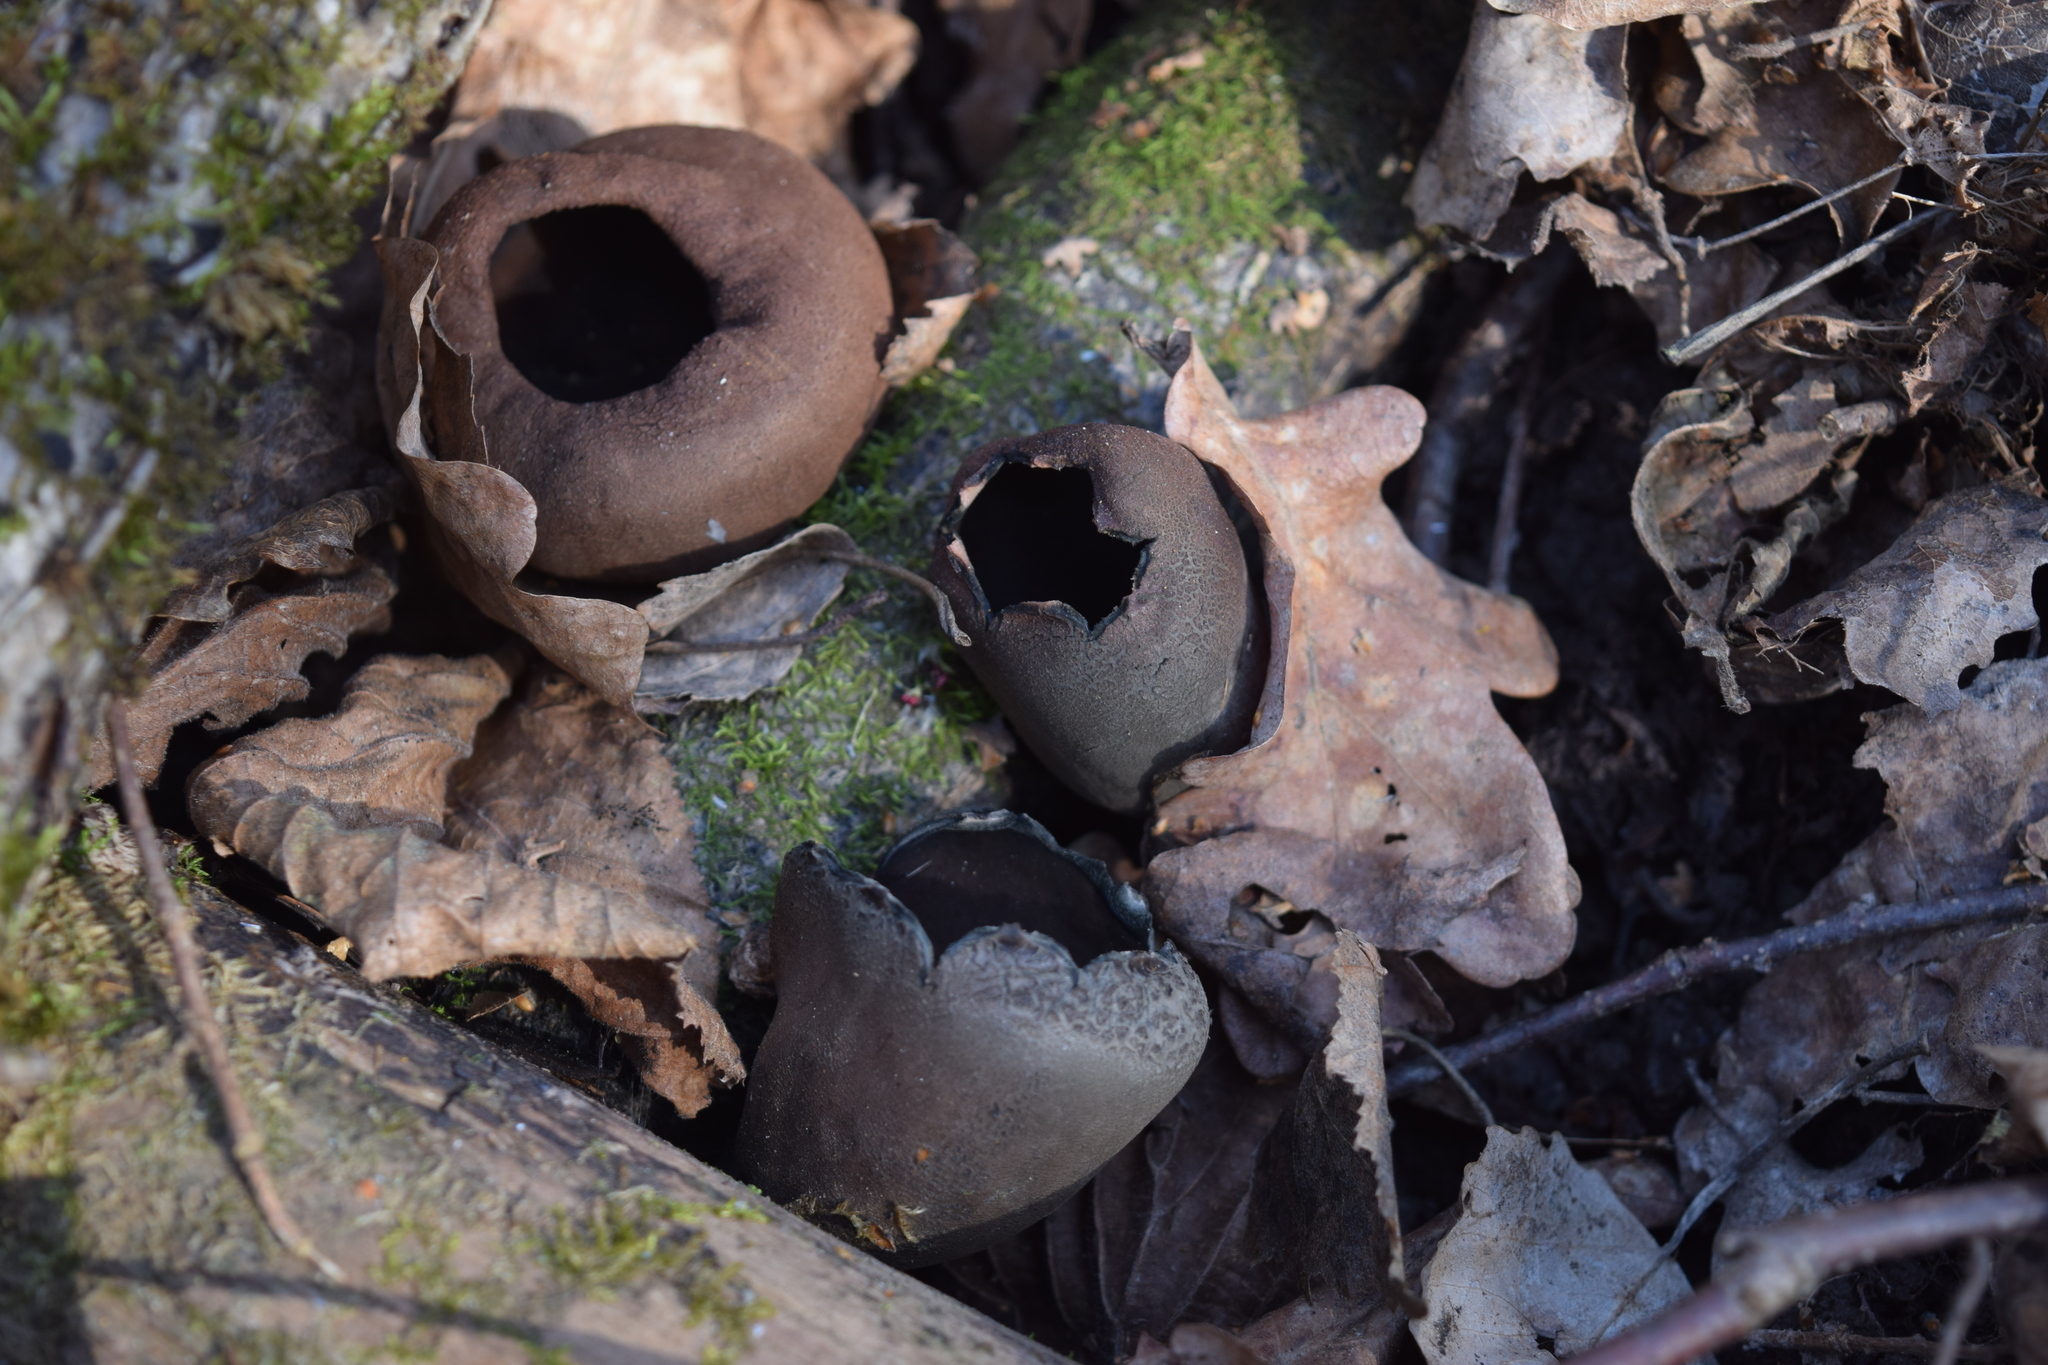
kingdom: Fungi
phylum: Ascomycota
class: Pezizomycetes
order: Pezizales
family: Sarcosomataceae
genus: Urnula
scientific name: Urnula craterium
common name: Devil's urn
